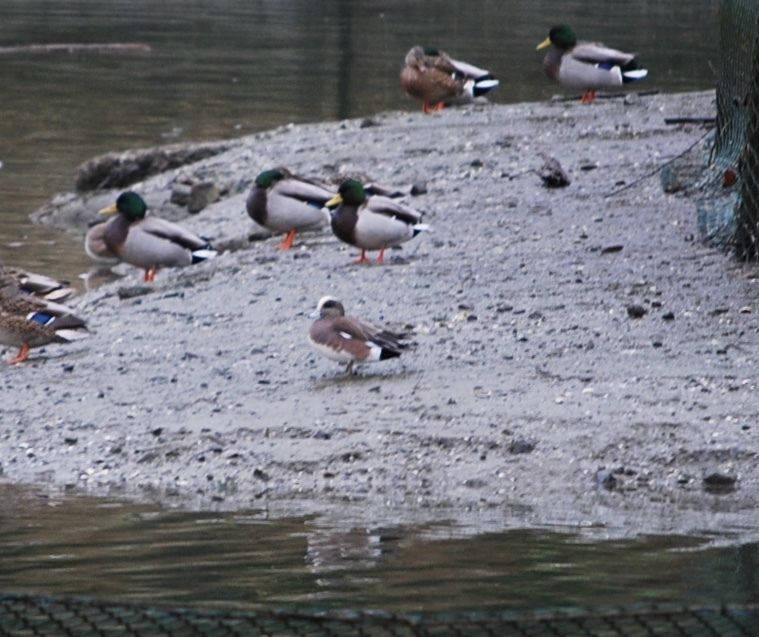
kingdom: Animalia
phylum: Chordata
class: Aves
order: Anseriformes
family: Anatidae
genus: Mareca
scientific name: Mareca americana
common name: American wigeon
